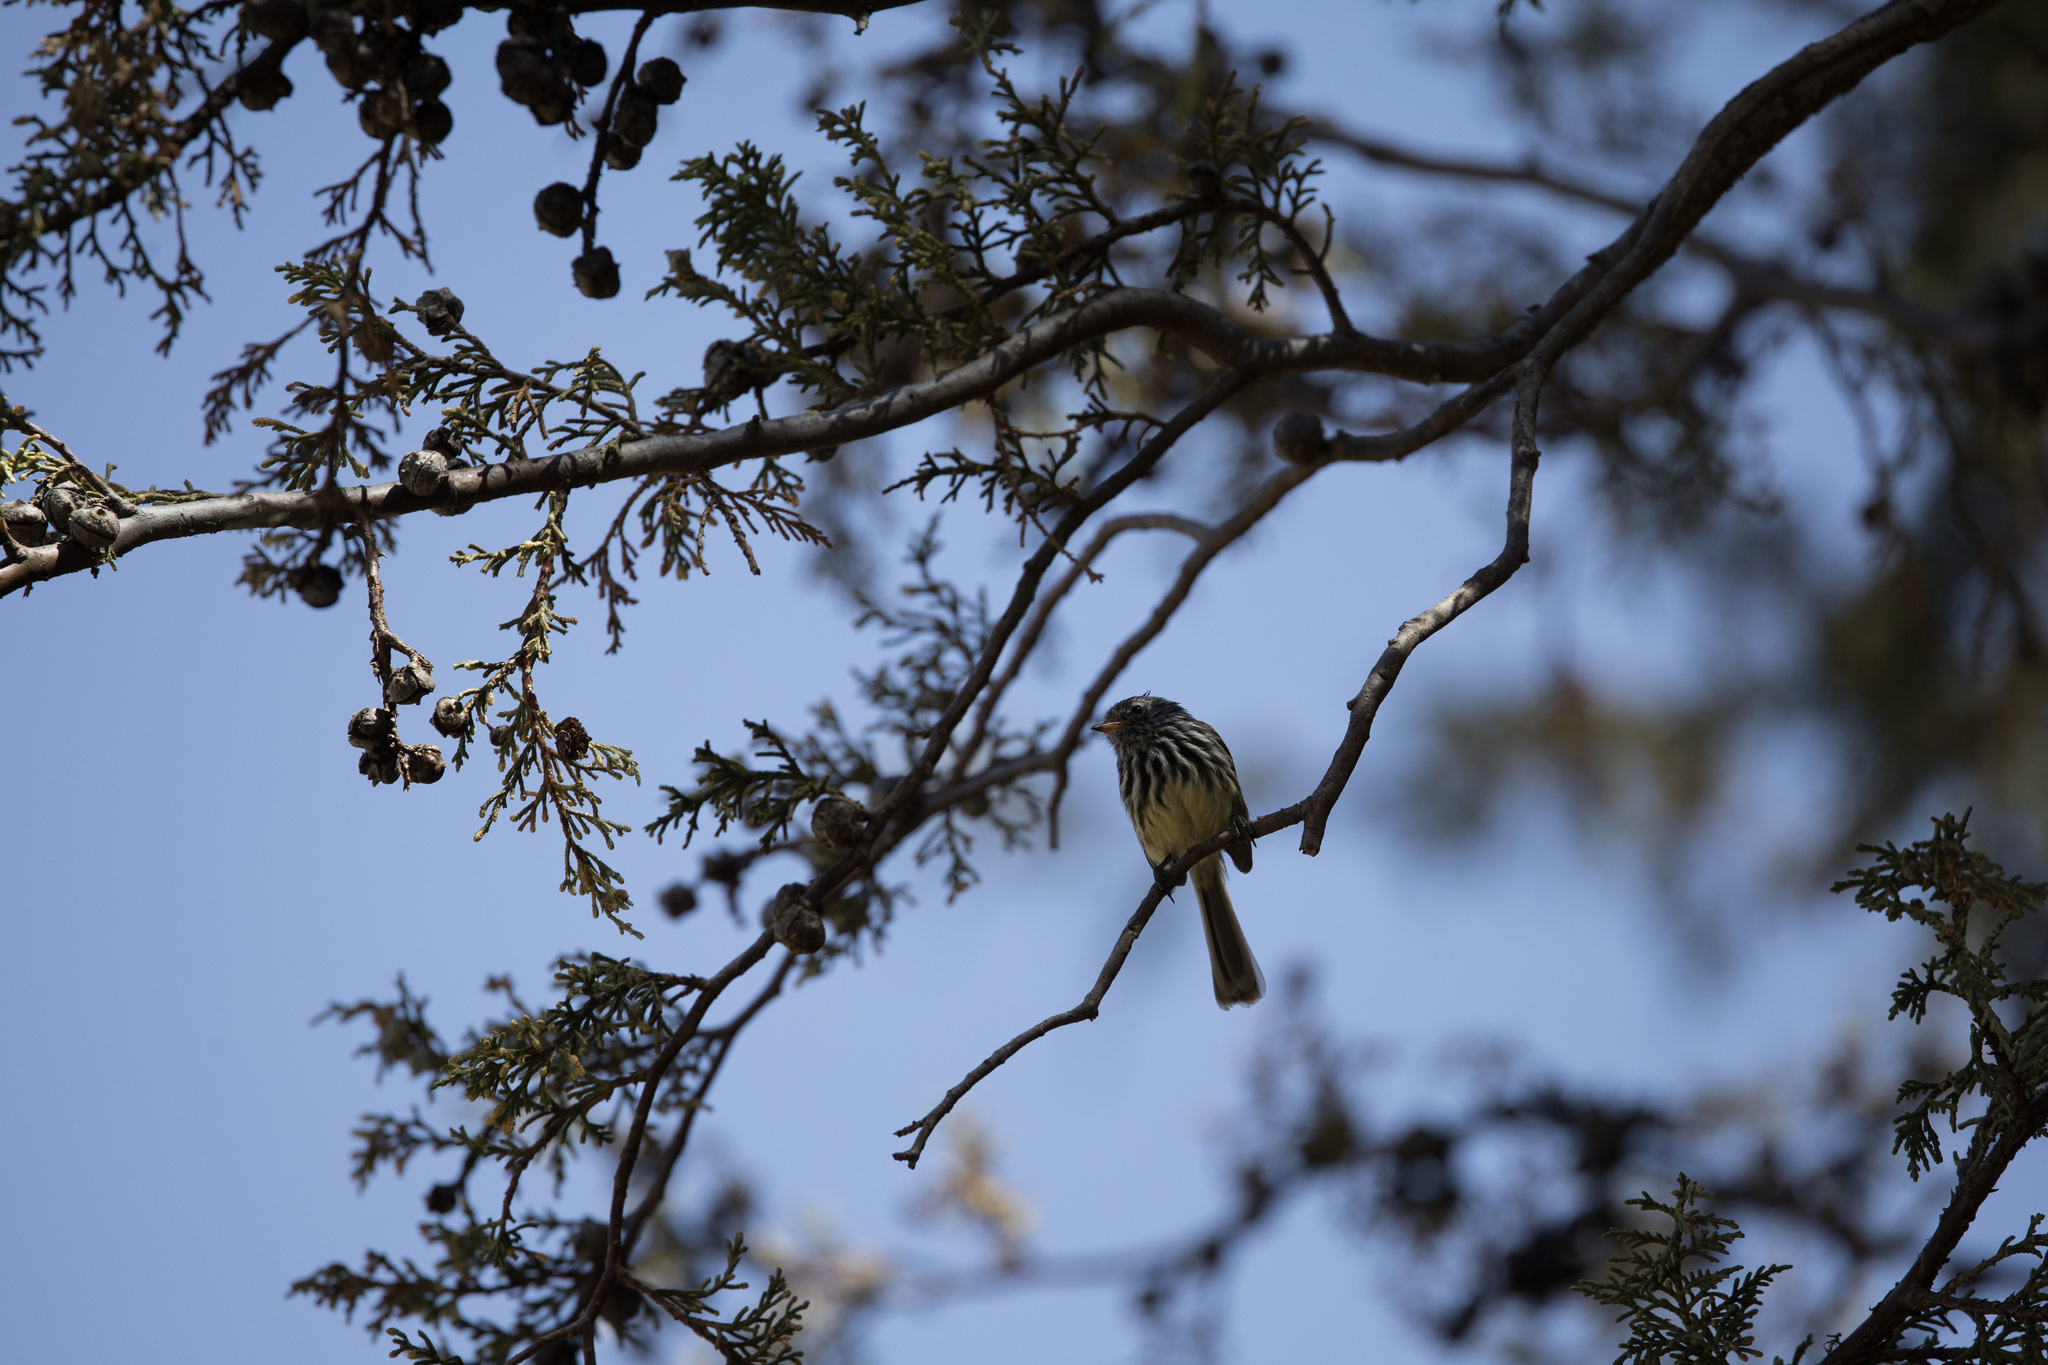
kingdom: Animalia
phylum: Chordata
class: Aves
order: Passeriformes
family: Tyrannidae
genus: Anairetes
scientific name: Anairetes flavirostris
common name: Yellow-billed tit-tyrant
